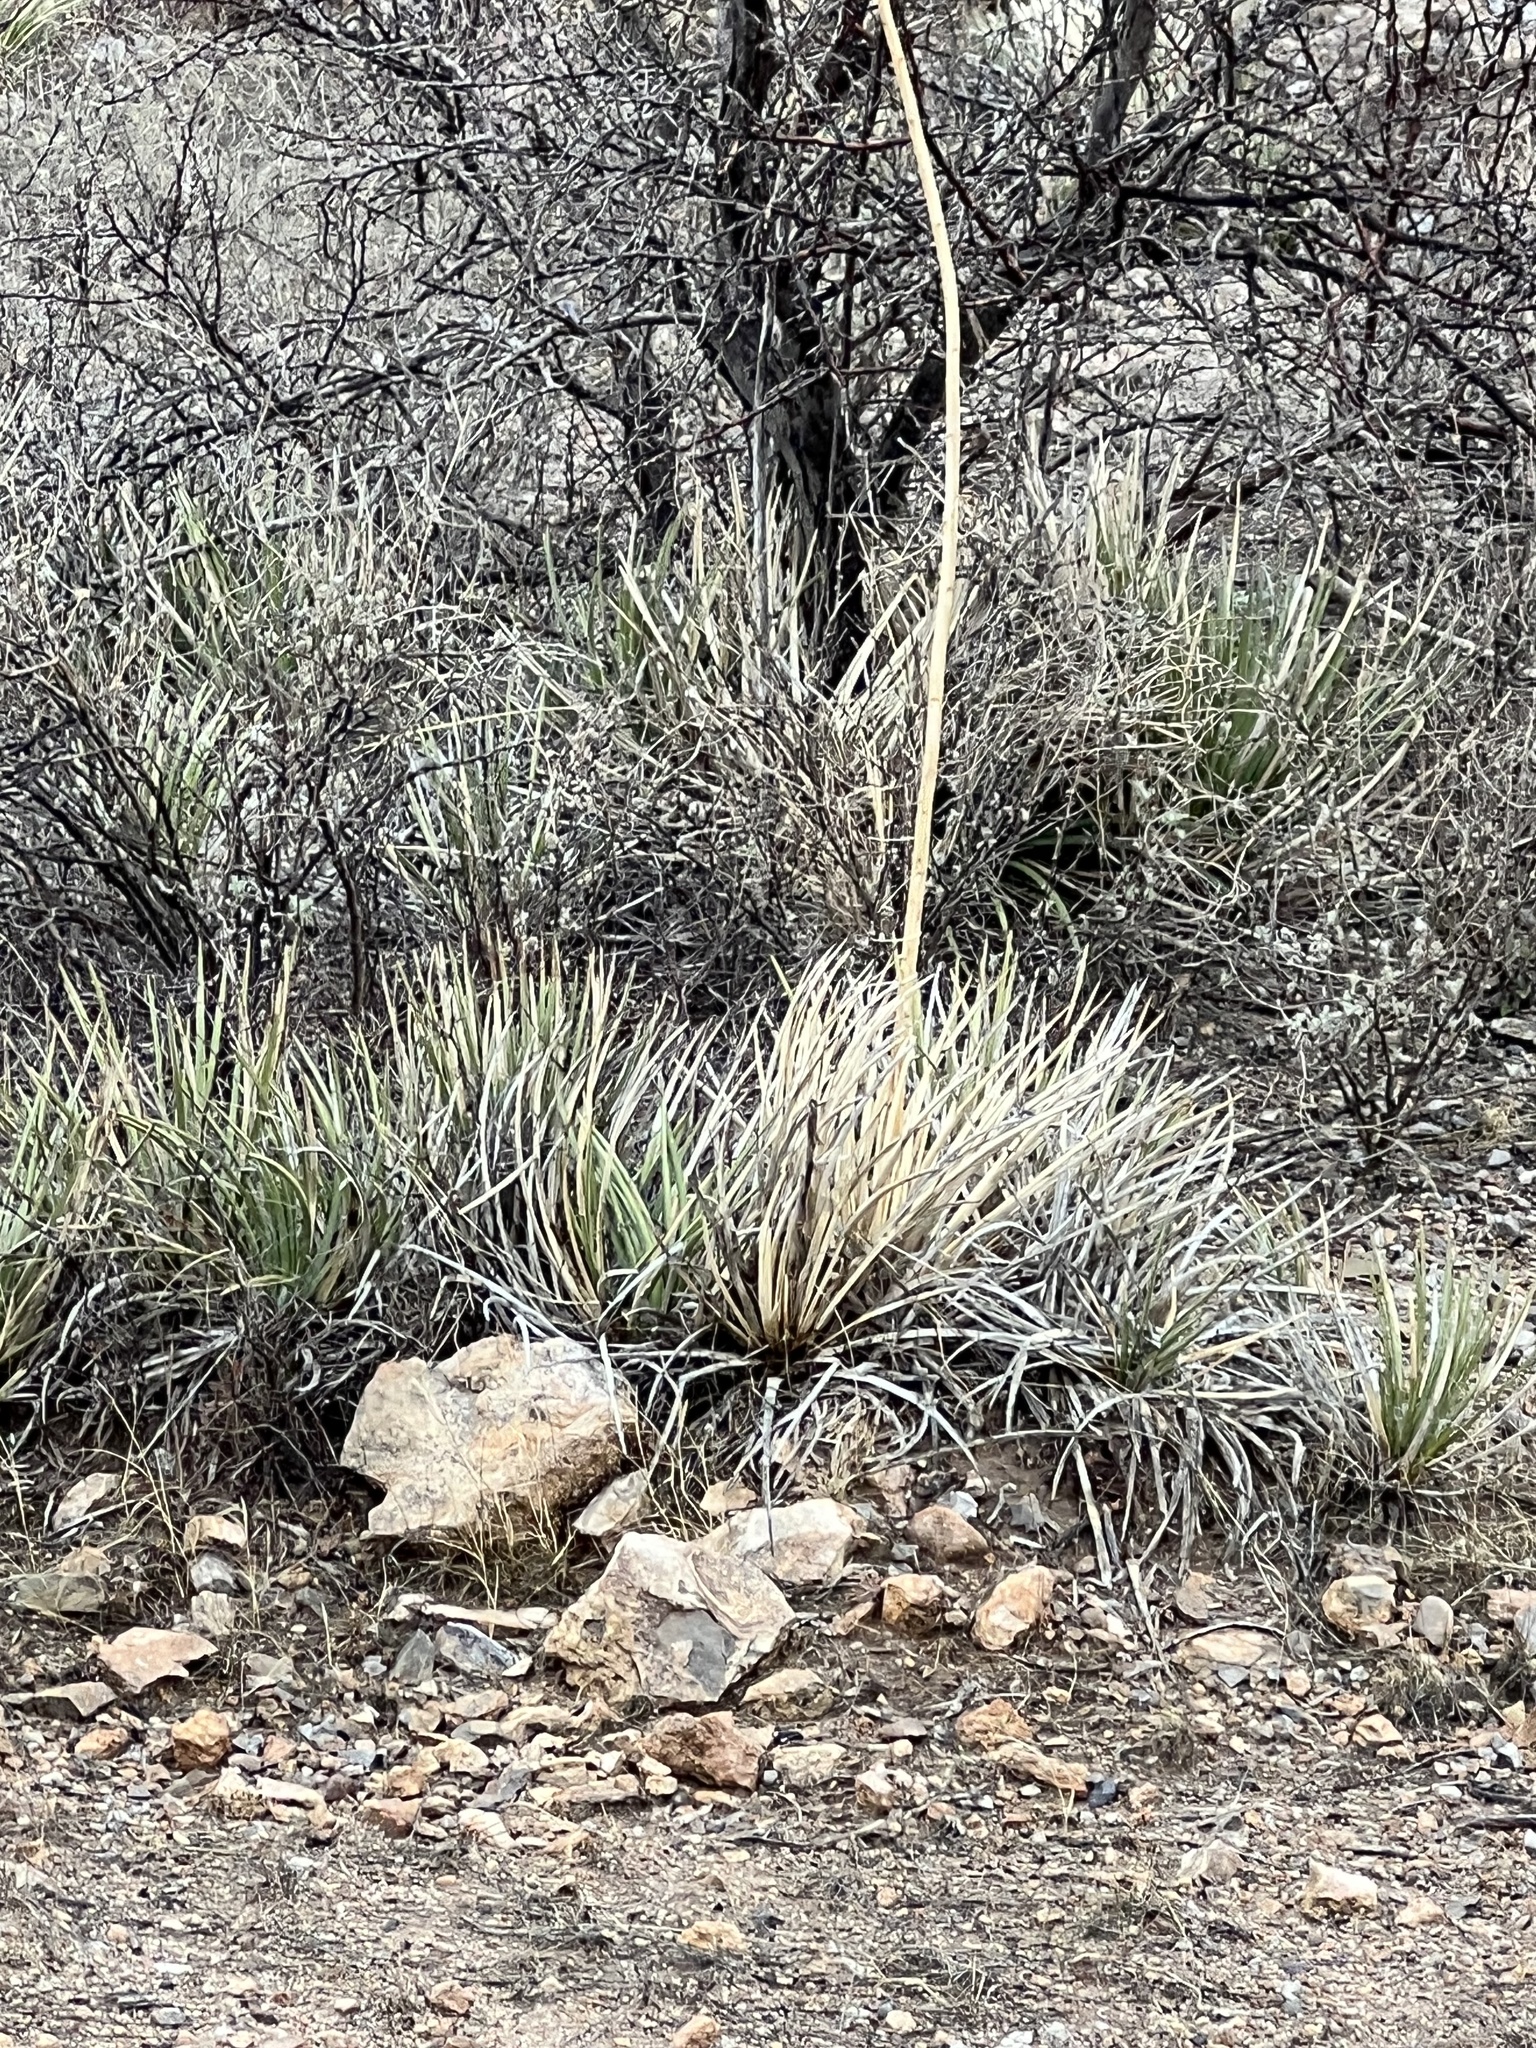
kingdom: Plantae
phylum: Tracheophyta
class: Liliopsida
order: Asparagales
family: Asparagaceae
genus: Agave
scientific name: Agave schottii
